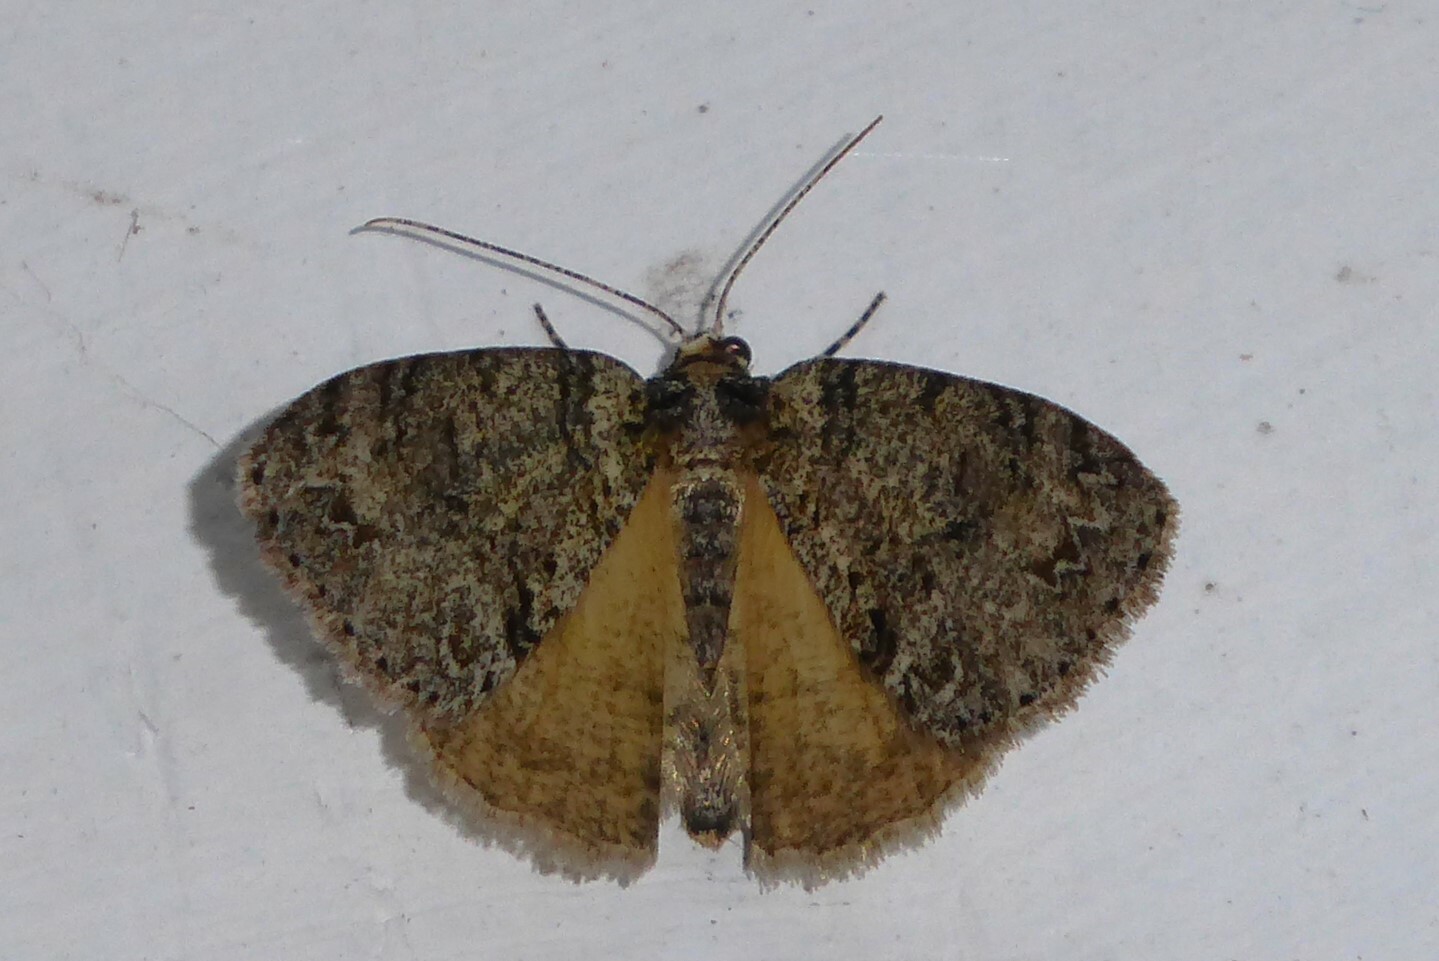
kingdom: Animalia
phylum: Arthropoda
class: Insecta
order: Lepidoptera
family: Geometridae
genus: Pseudocoremia
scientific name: Pseudocoremia suavis
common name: Common forest looper
